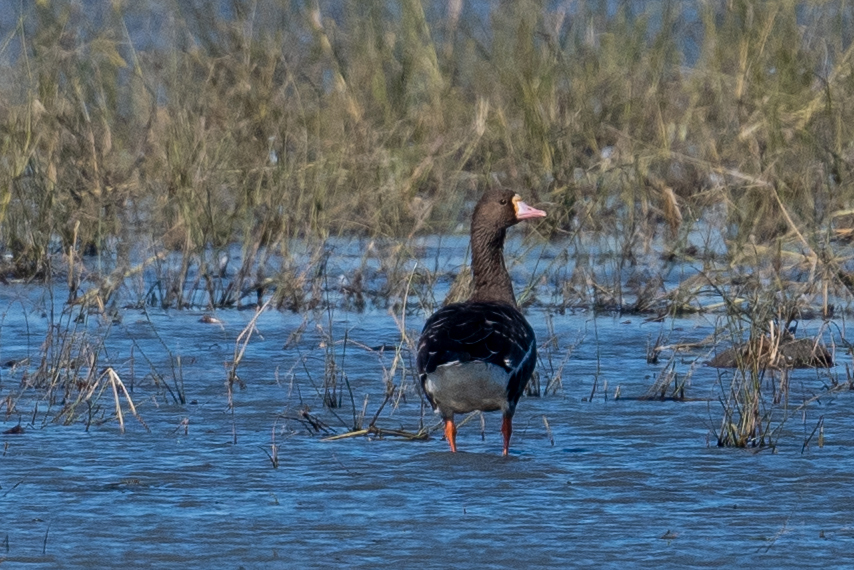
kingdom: Animalia
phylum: Chordata
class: Aves
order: Anseriformes
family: Anatidae
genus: Anser
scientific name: Anser albifrons
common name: Greater white-fronted goose
